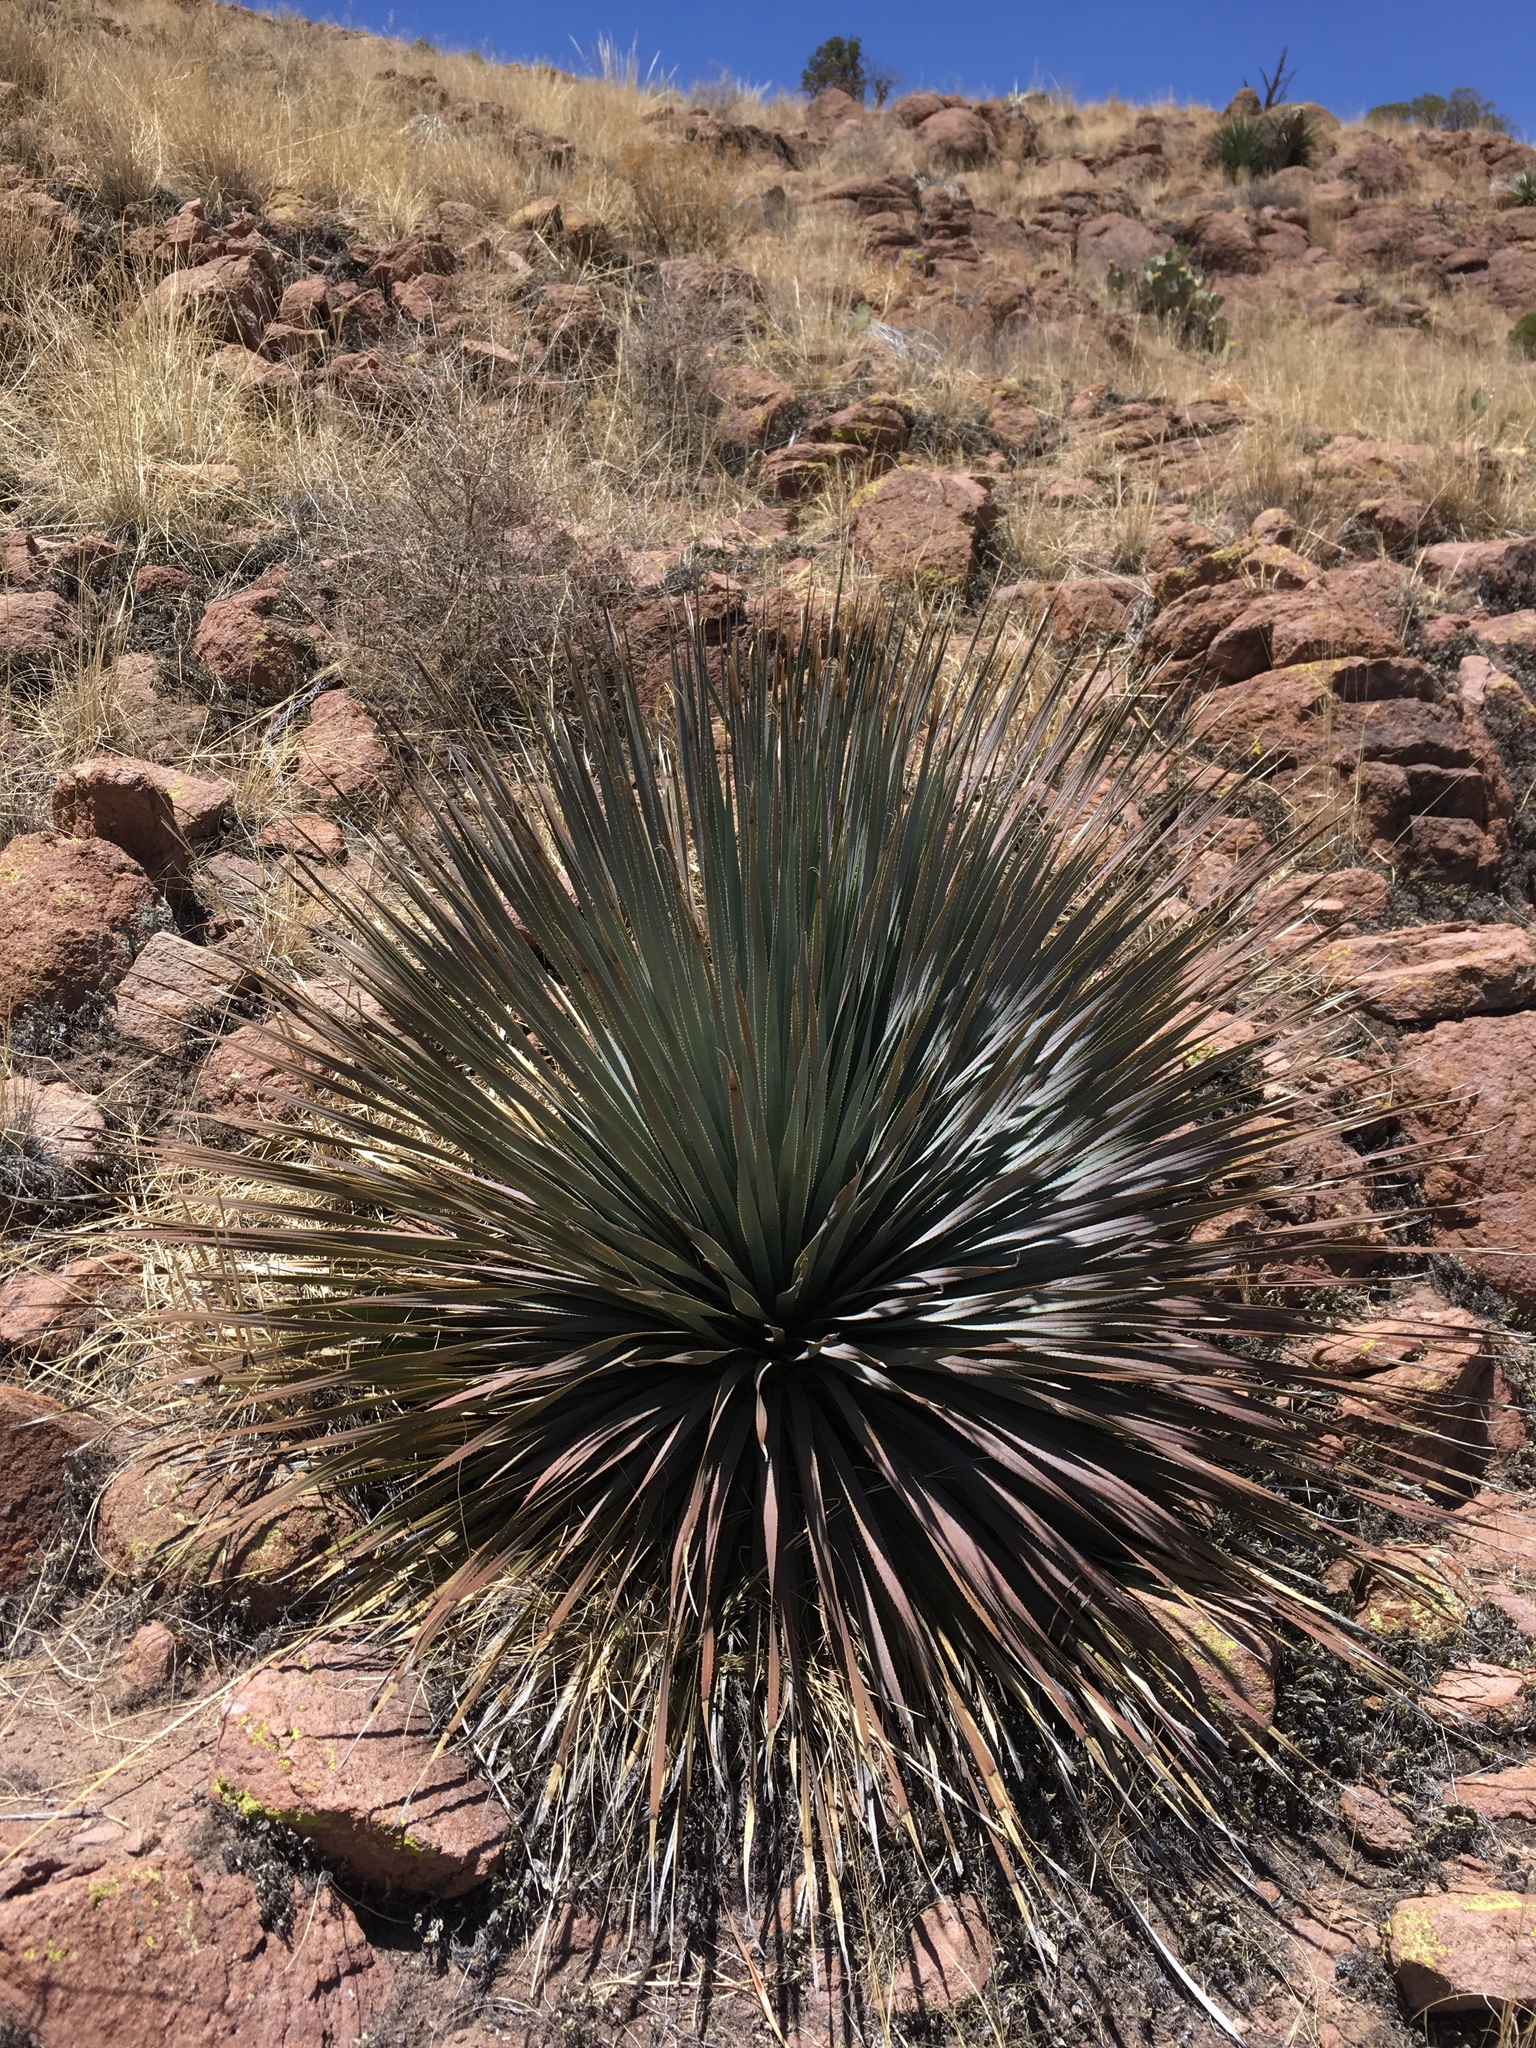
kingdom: Plantae
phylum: Tracheophyta
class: Liliopsida
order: Asparagales
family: Asparagaceae
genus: Dasylirion
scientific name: Dasylirion wheeleri
